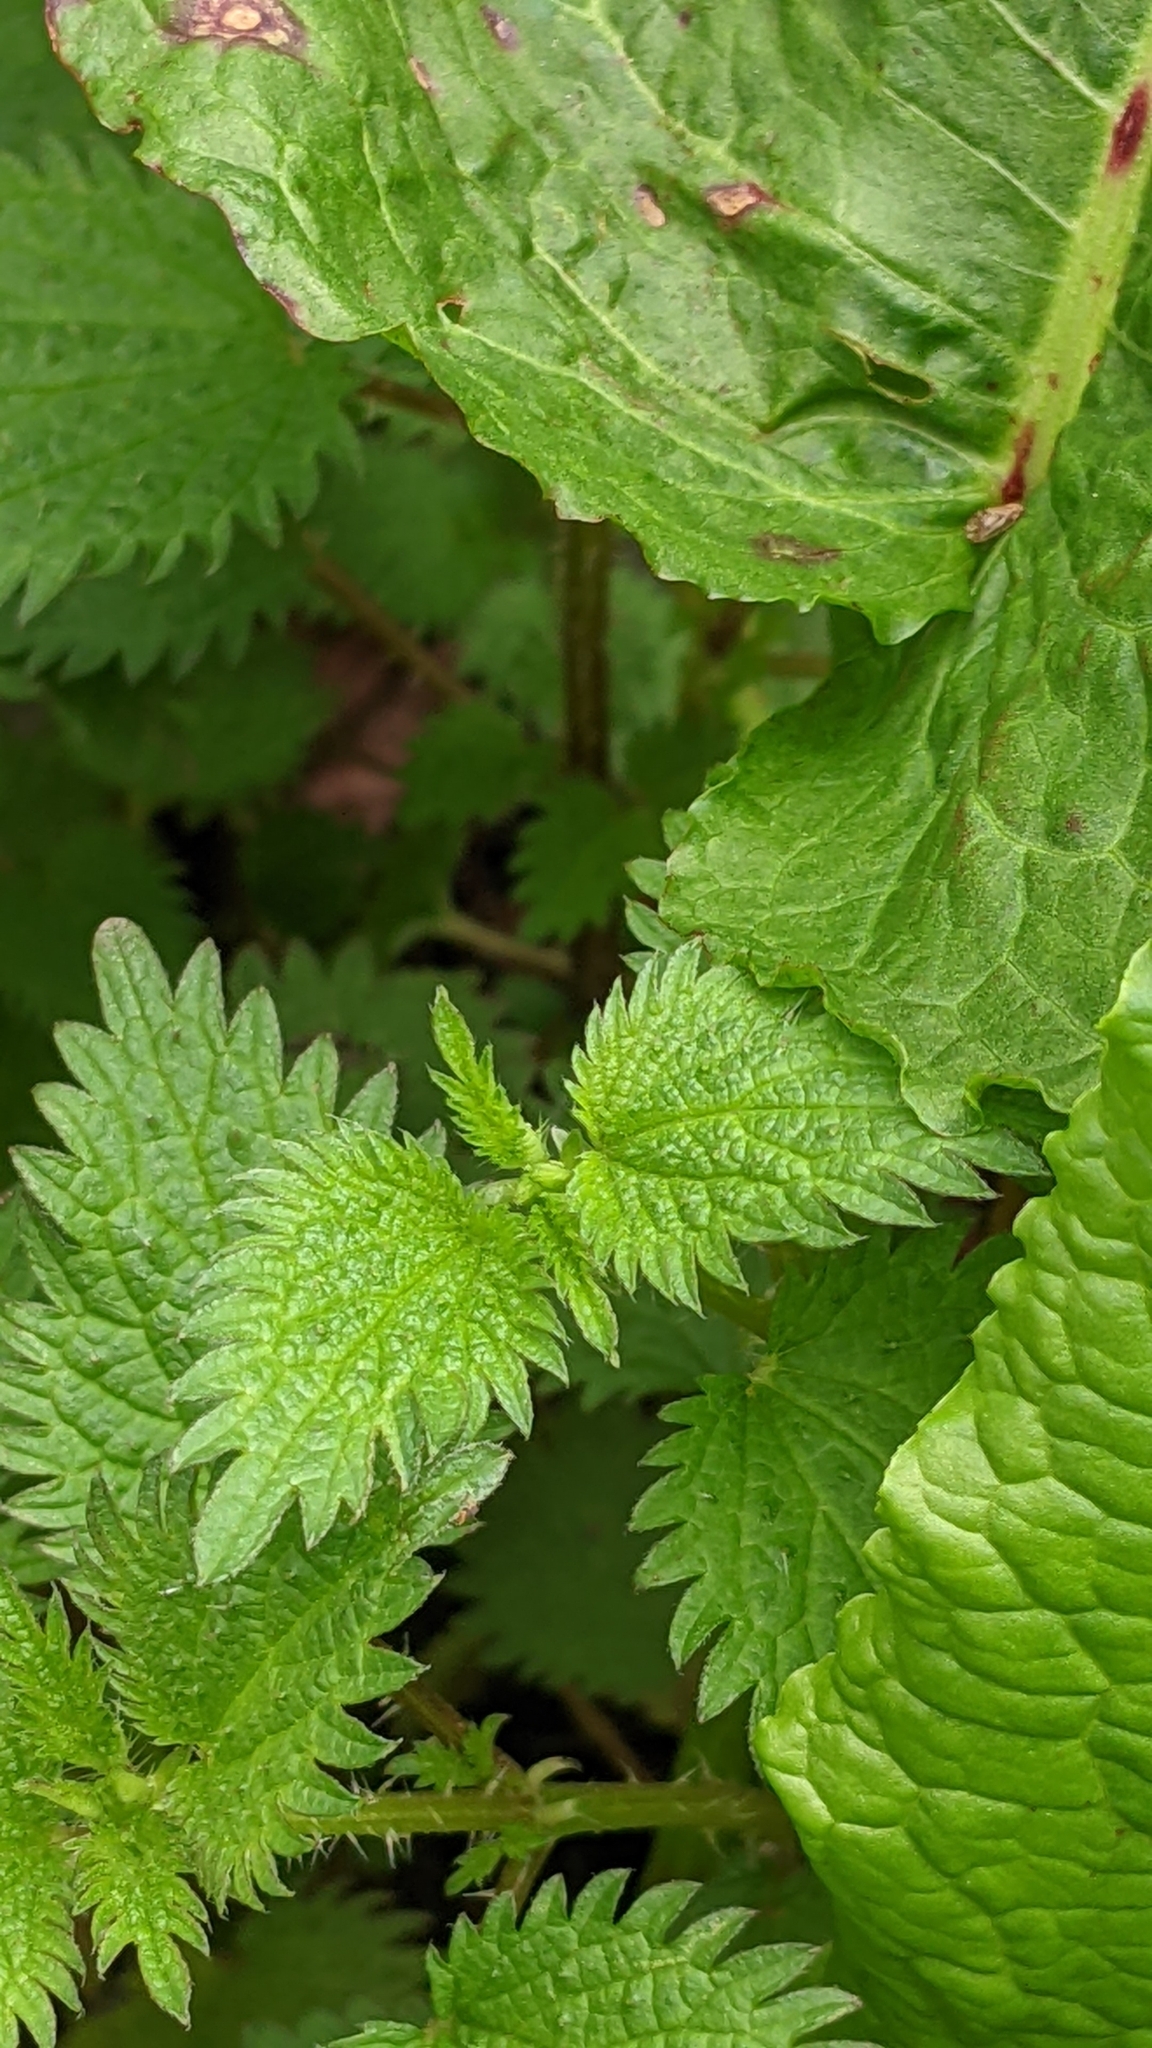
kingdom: Plantae
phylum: Tracheophyta
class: Magnoliopsida
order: Rosales
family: Urticaceae
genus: Urtica
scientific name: Urtica taiwaniana
